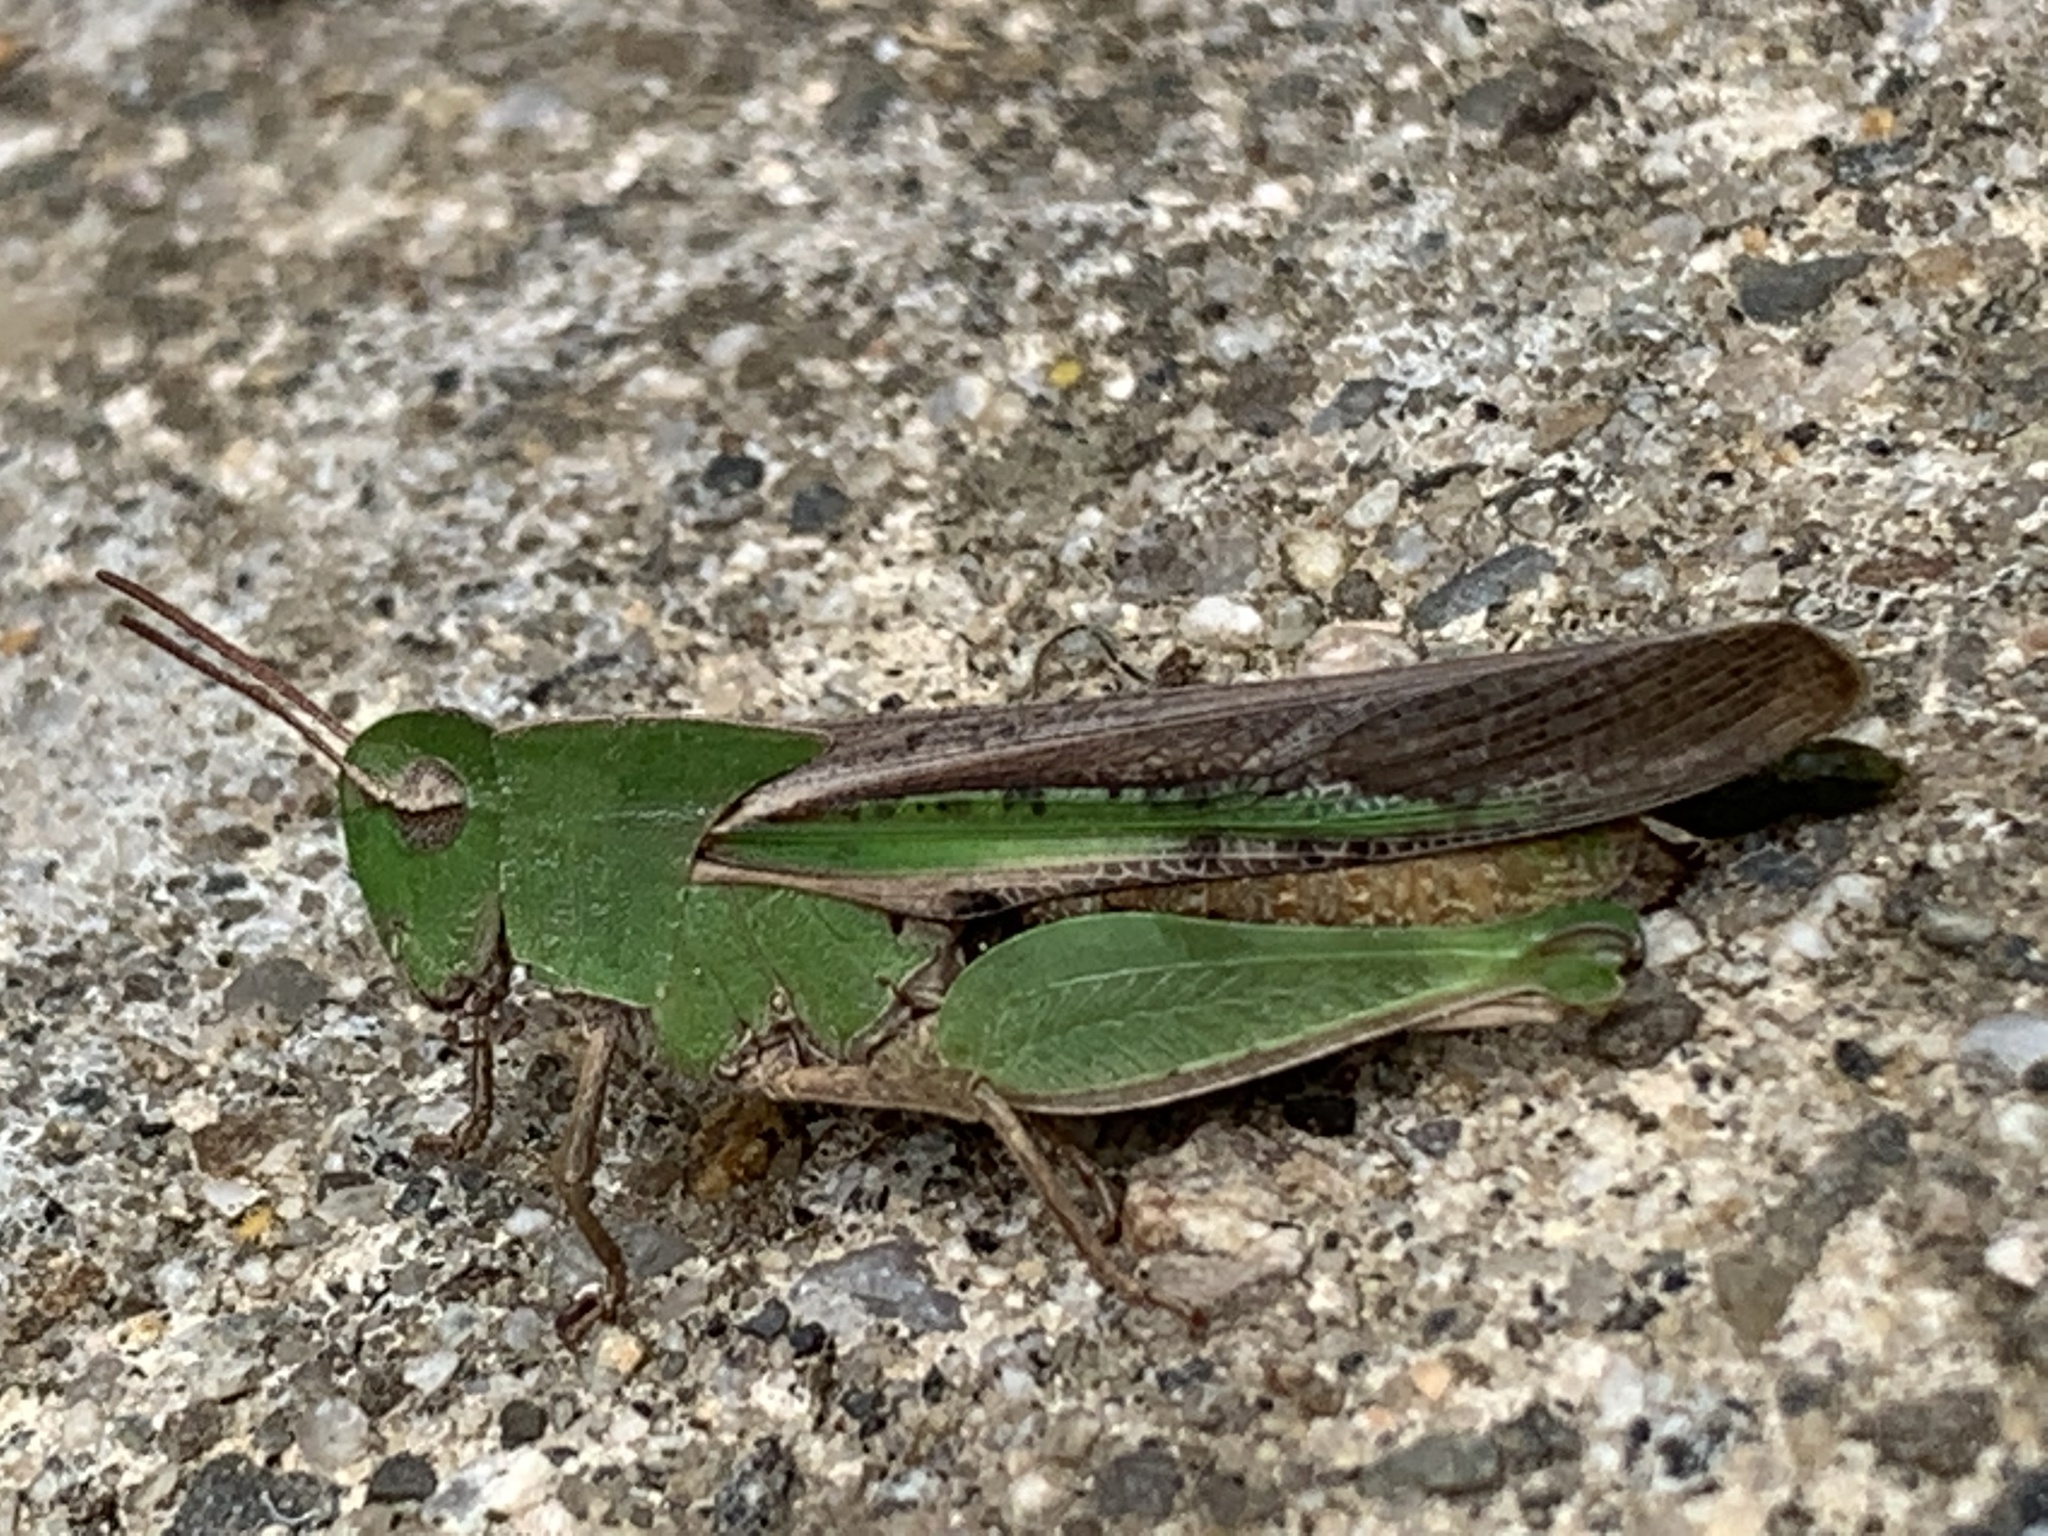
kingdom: Animalia
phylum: Arthropoda
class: Insecta
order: Orthoptera
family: Acrididae
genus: Chortophaga
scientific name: Chortophaga viridifasciata
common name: Green-striped grasshopper
